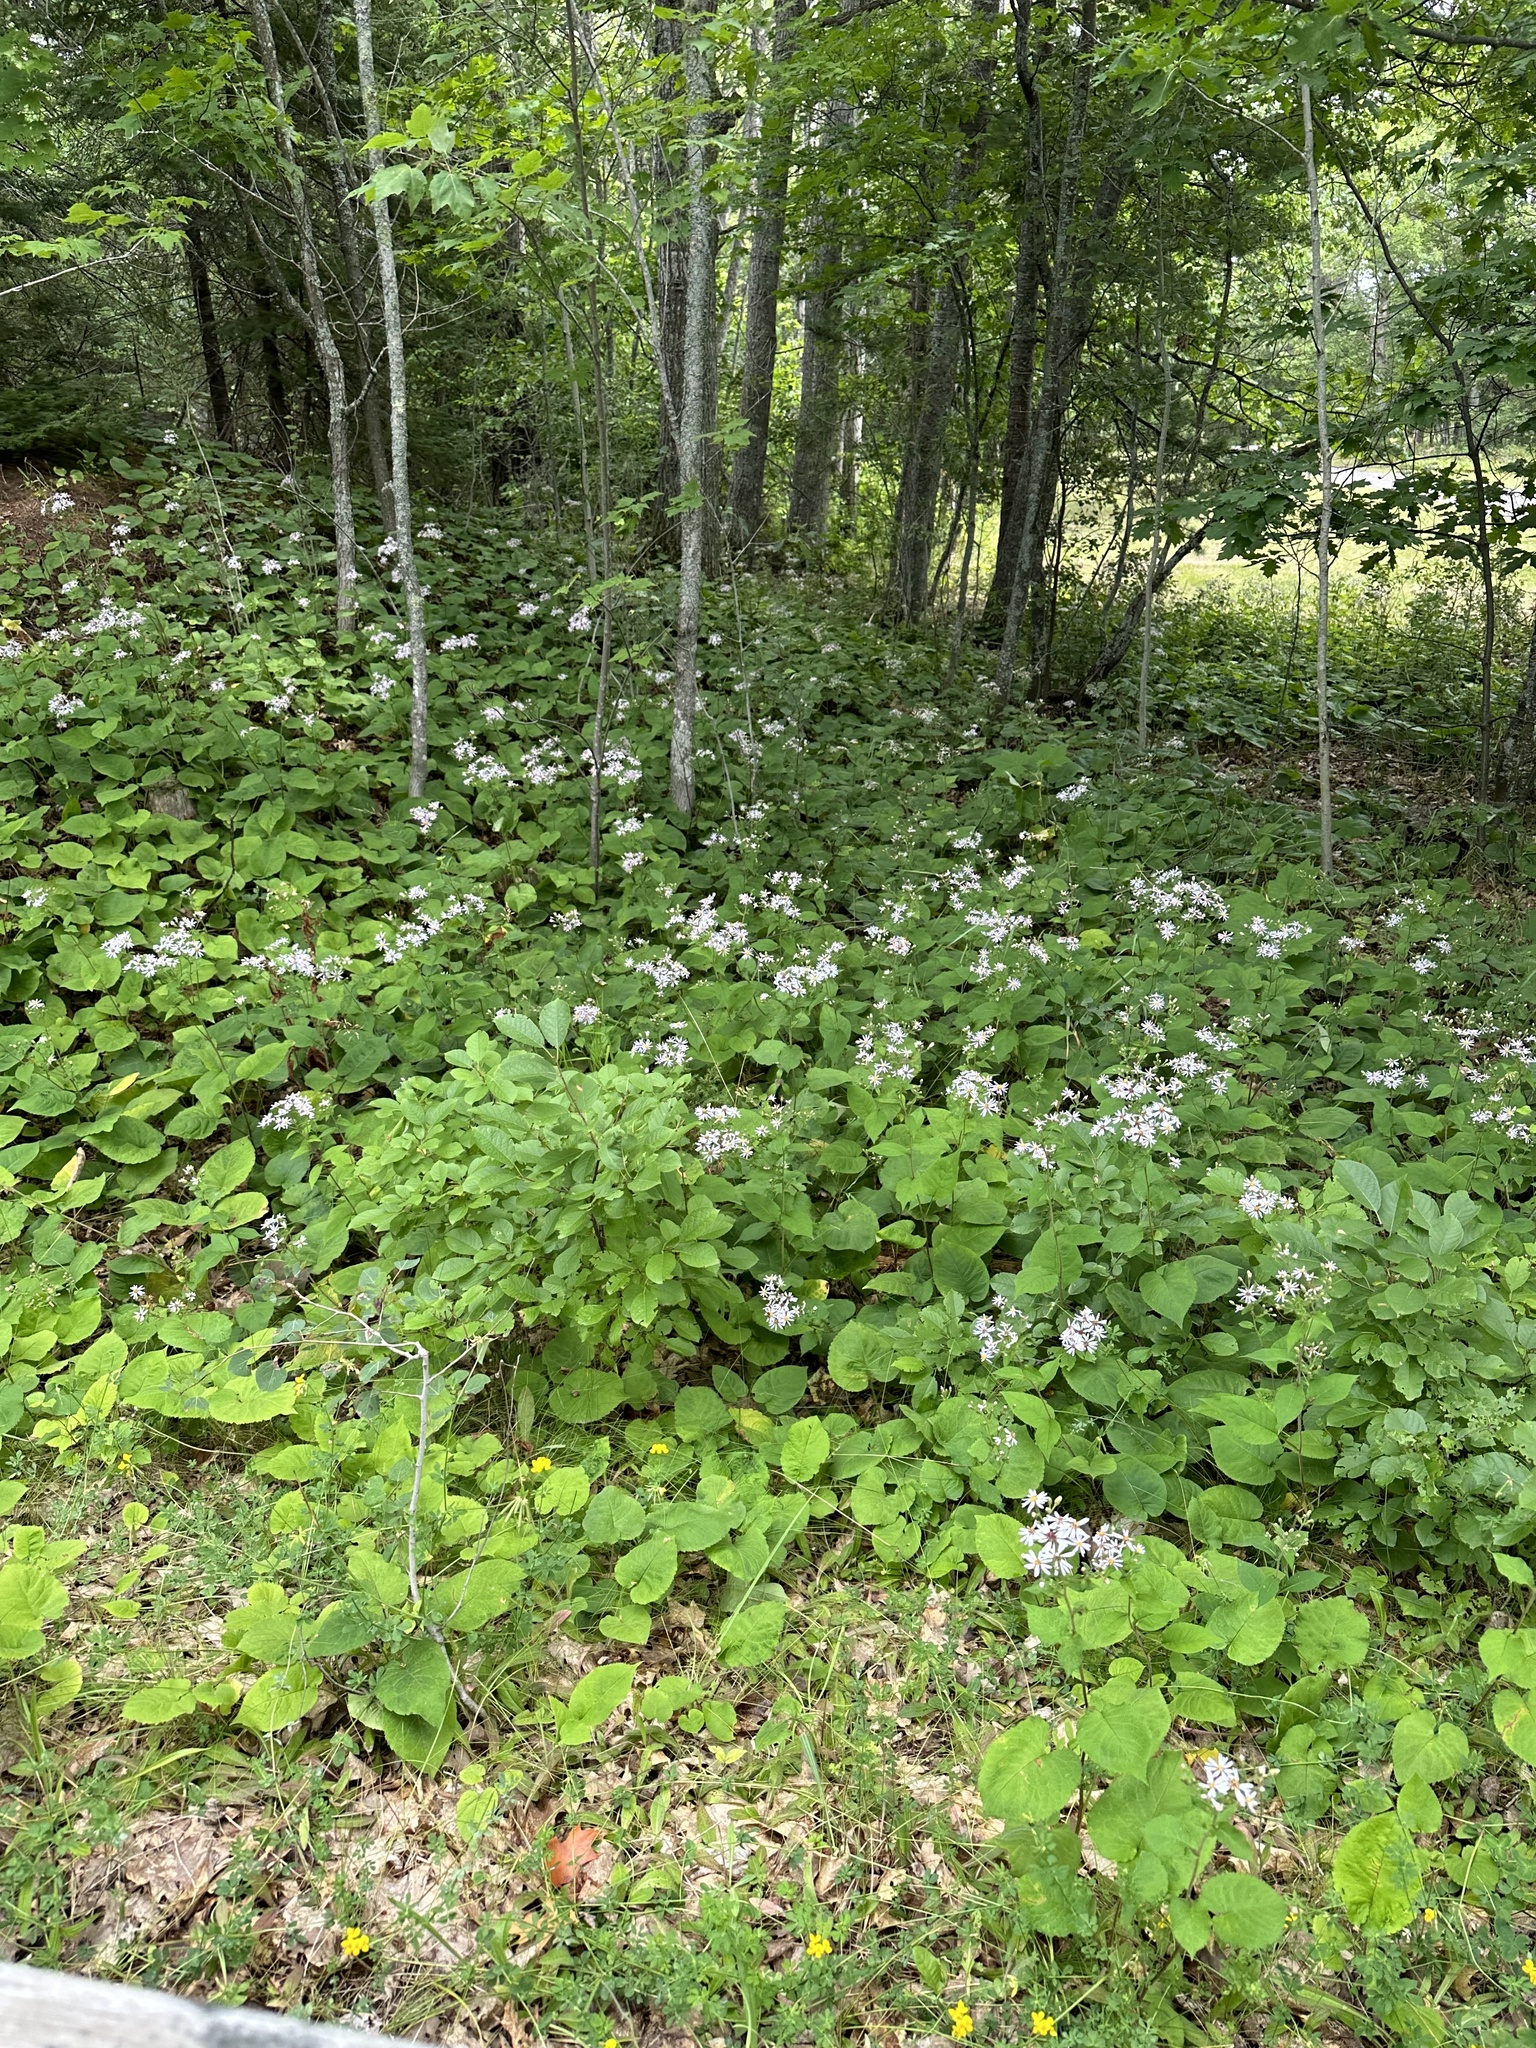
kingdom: Plantae
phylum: Tracheophyta
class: Magnoliopsida
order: Asterales
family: Asteraceae
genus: Eurybia
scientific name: Eurybia macrophylla
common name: Big-leaved aster
